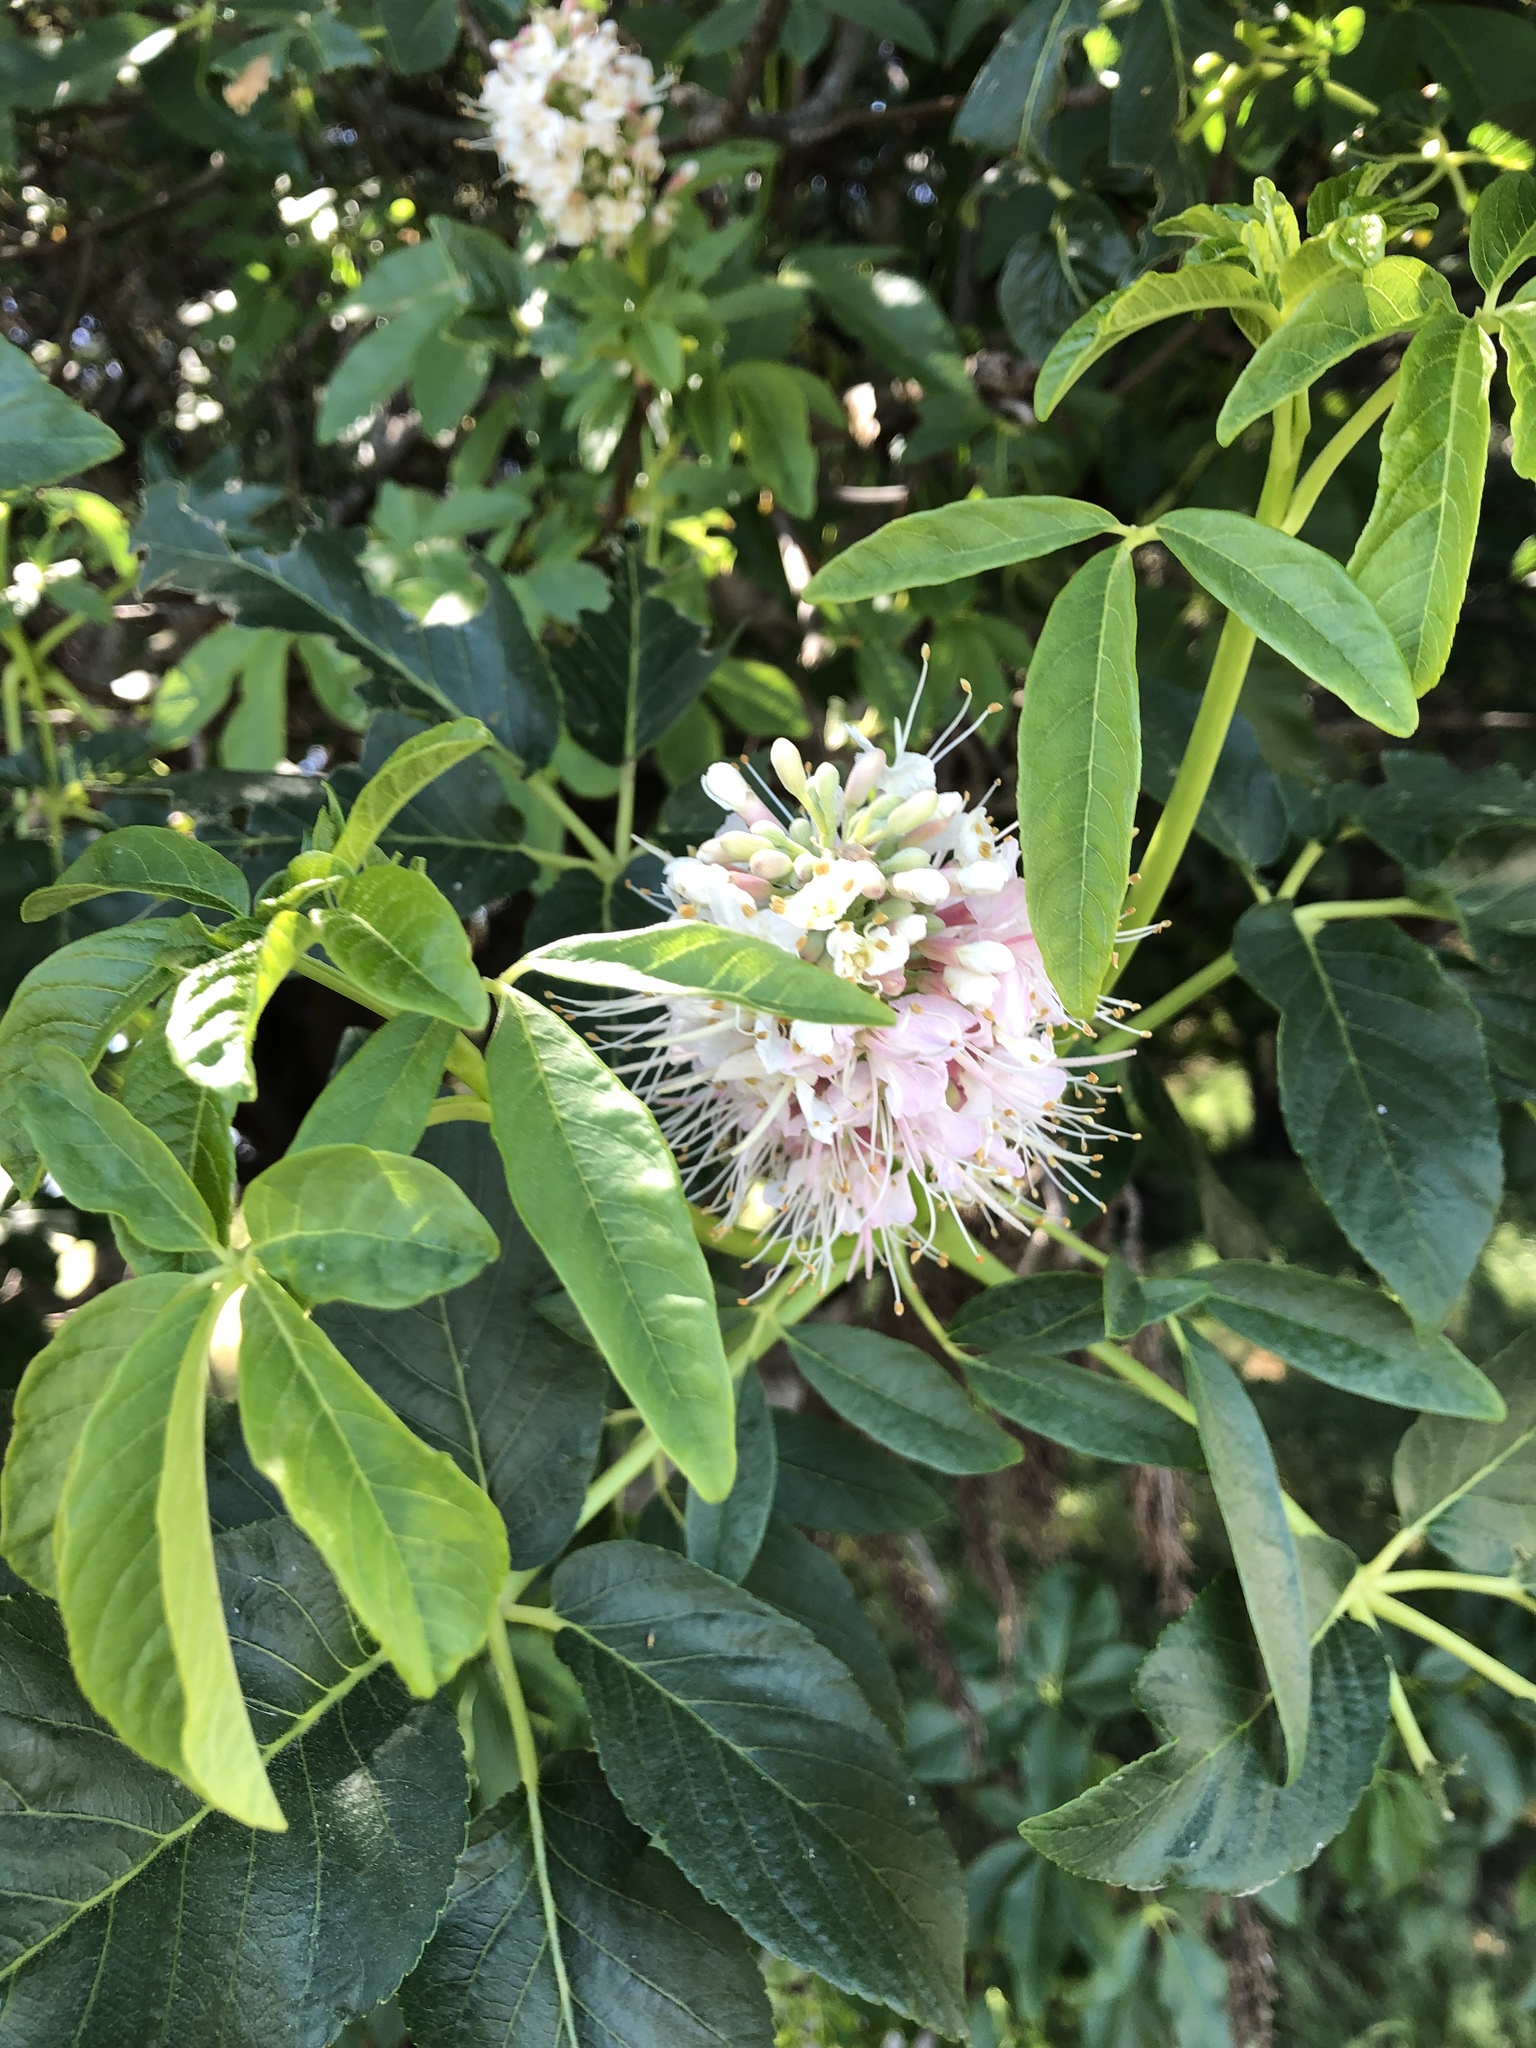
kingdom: Plantae
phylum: Tracheophyta
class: Magnoliopsida
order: Sapindales
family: Sapindaceae
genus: Aesculus
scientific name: Aesculus californica
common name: California buckeye
